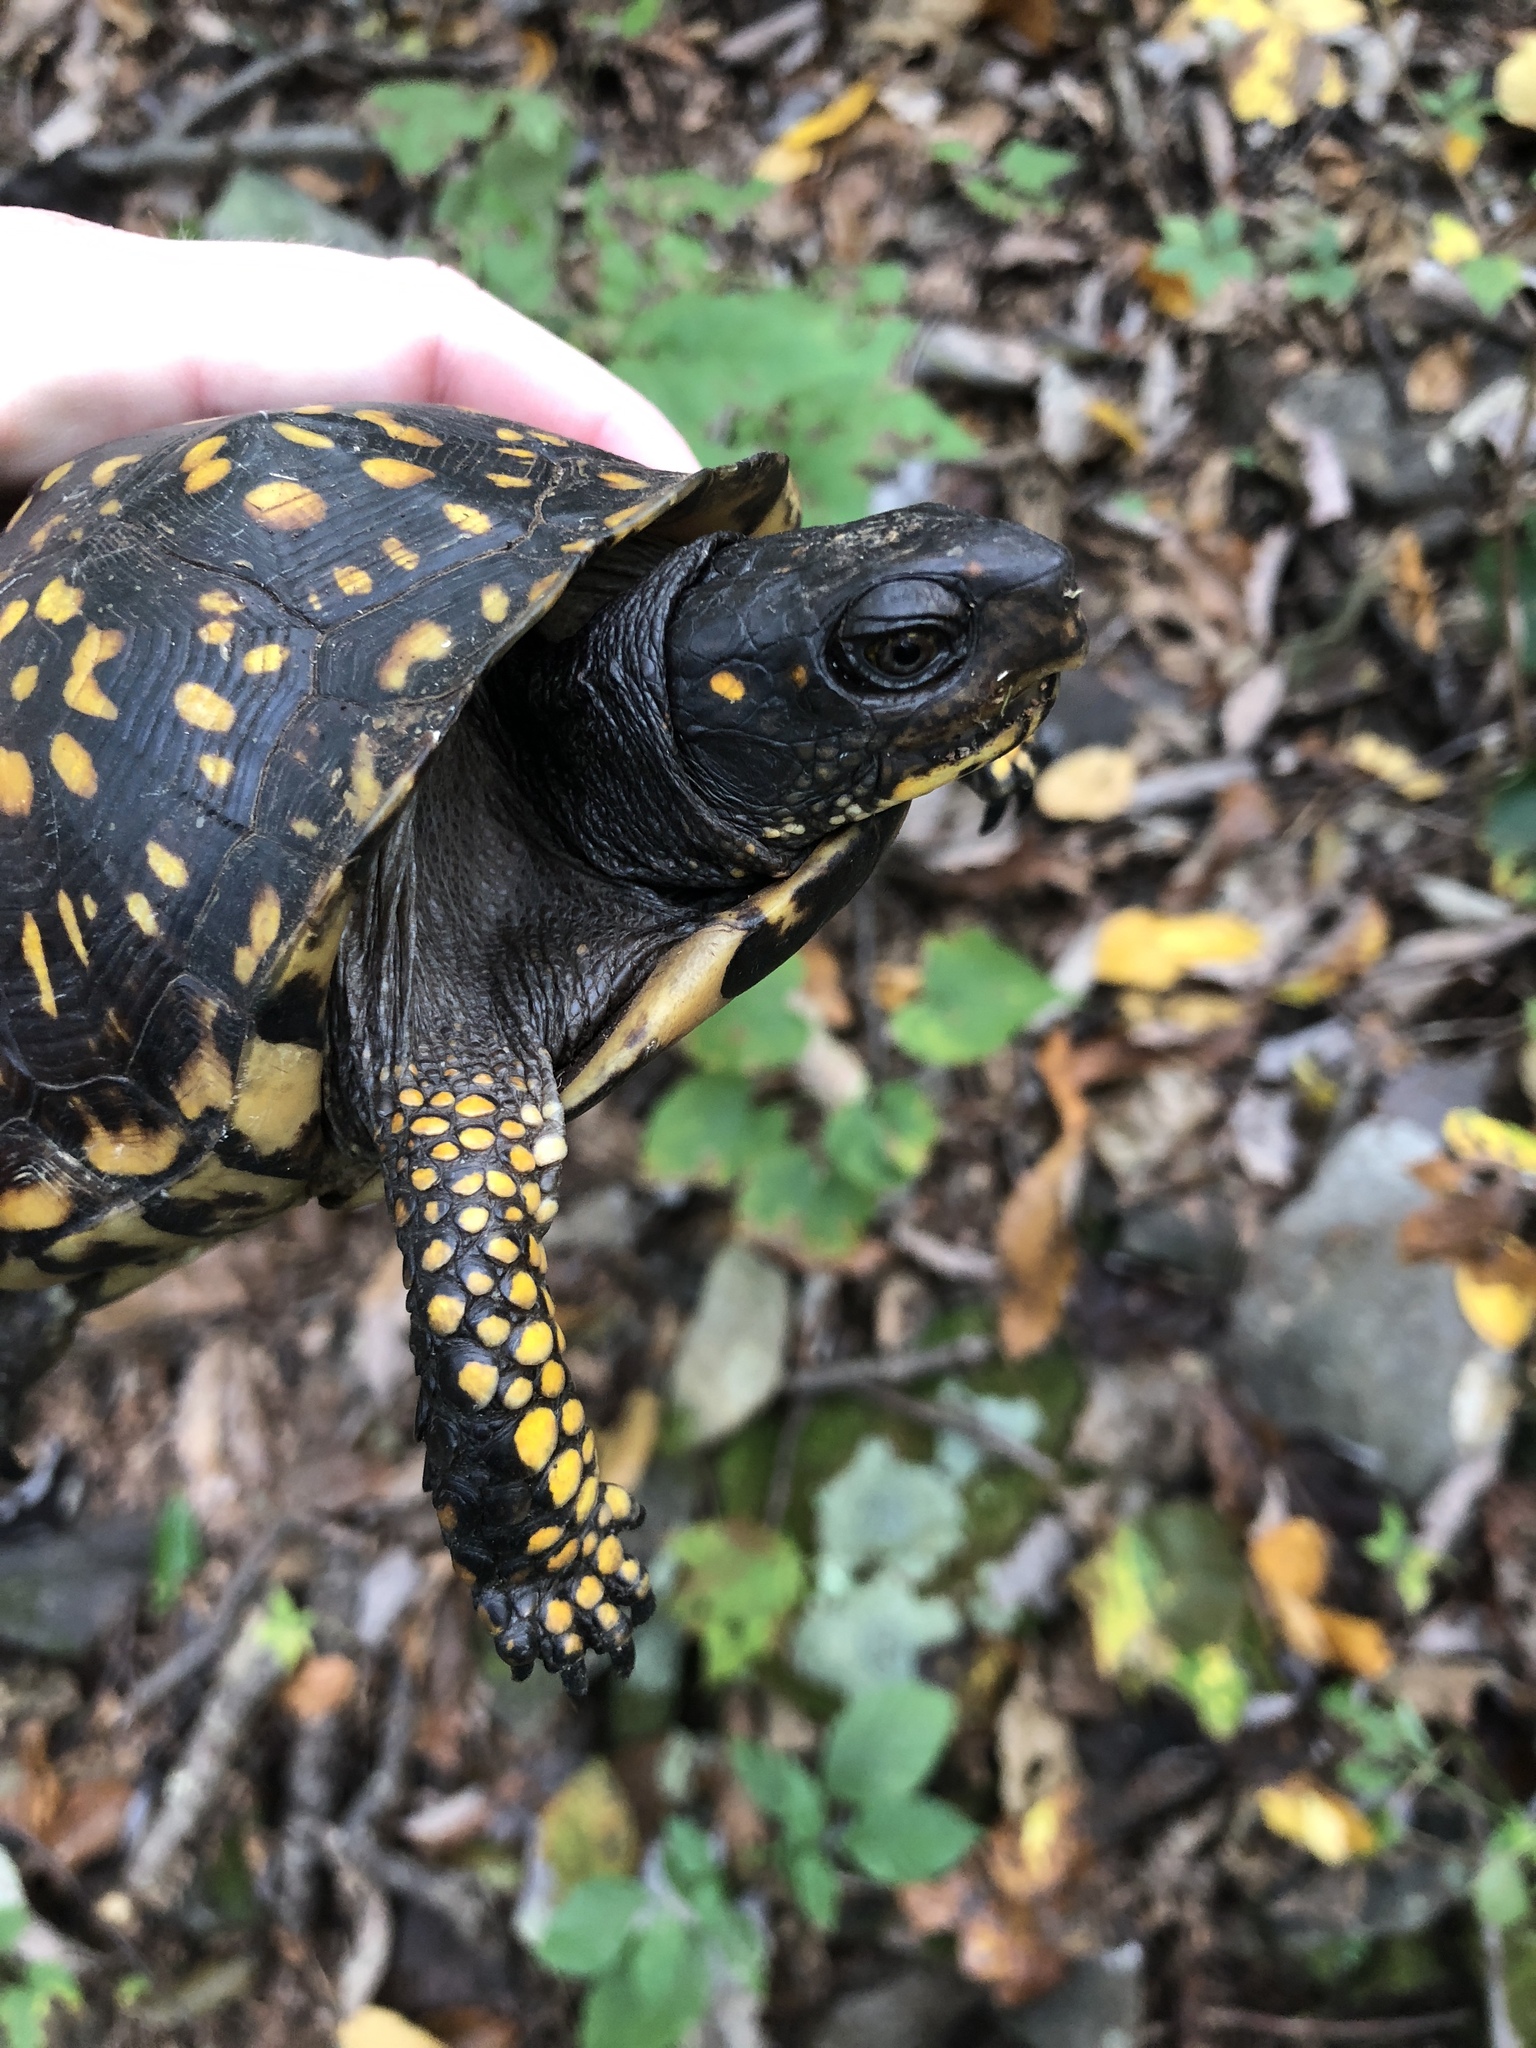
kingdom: Animalia
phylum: Chordata
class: Testudines
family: Emydidae
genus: Terrapene
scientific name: Terrapene carolina
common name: Common box turtle
